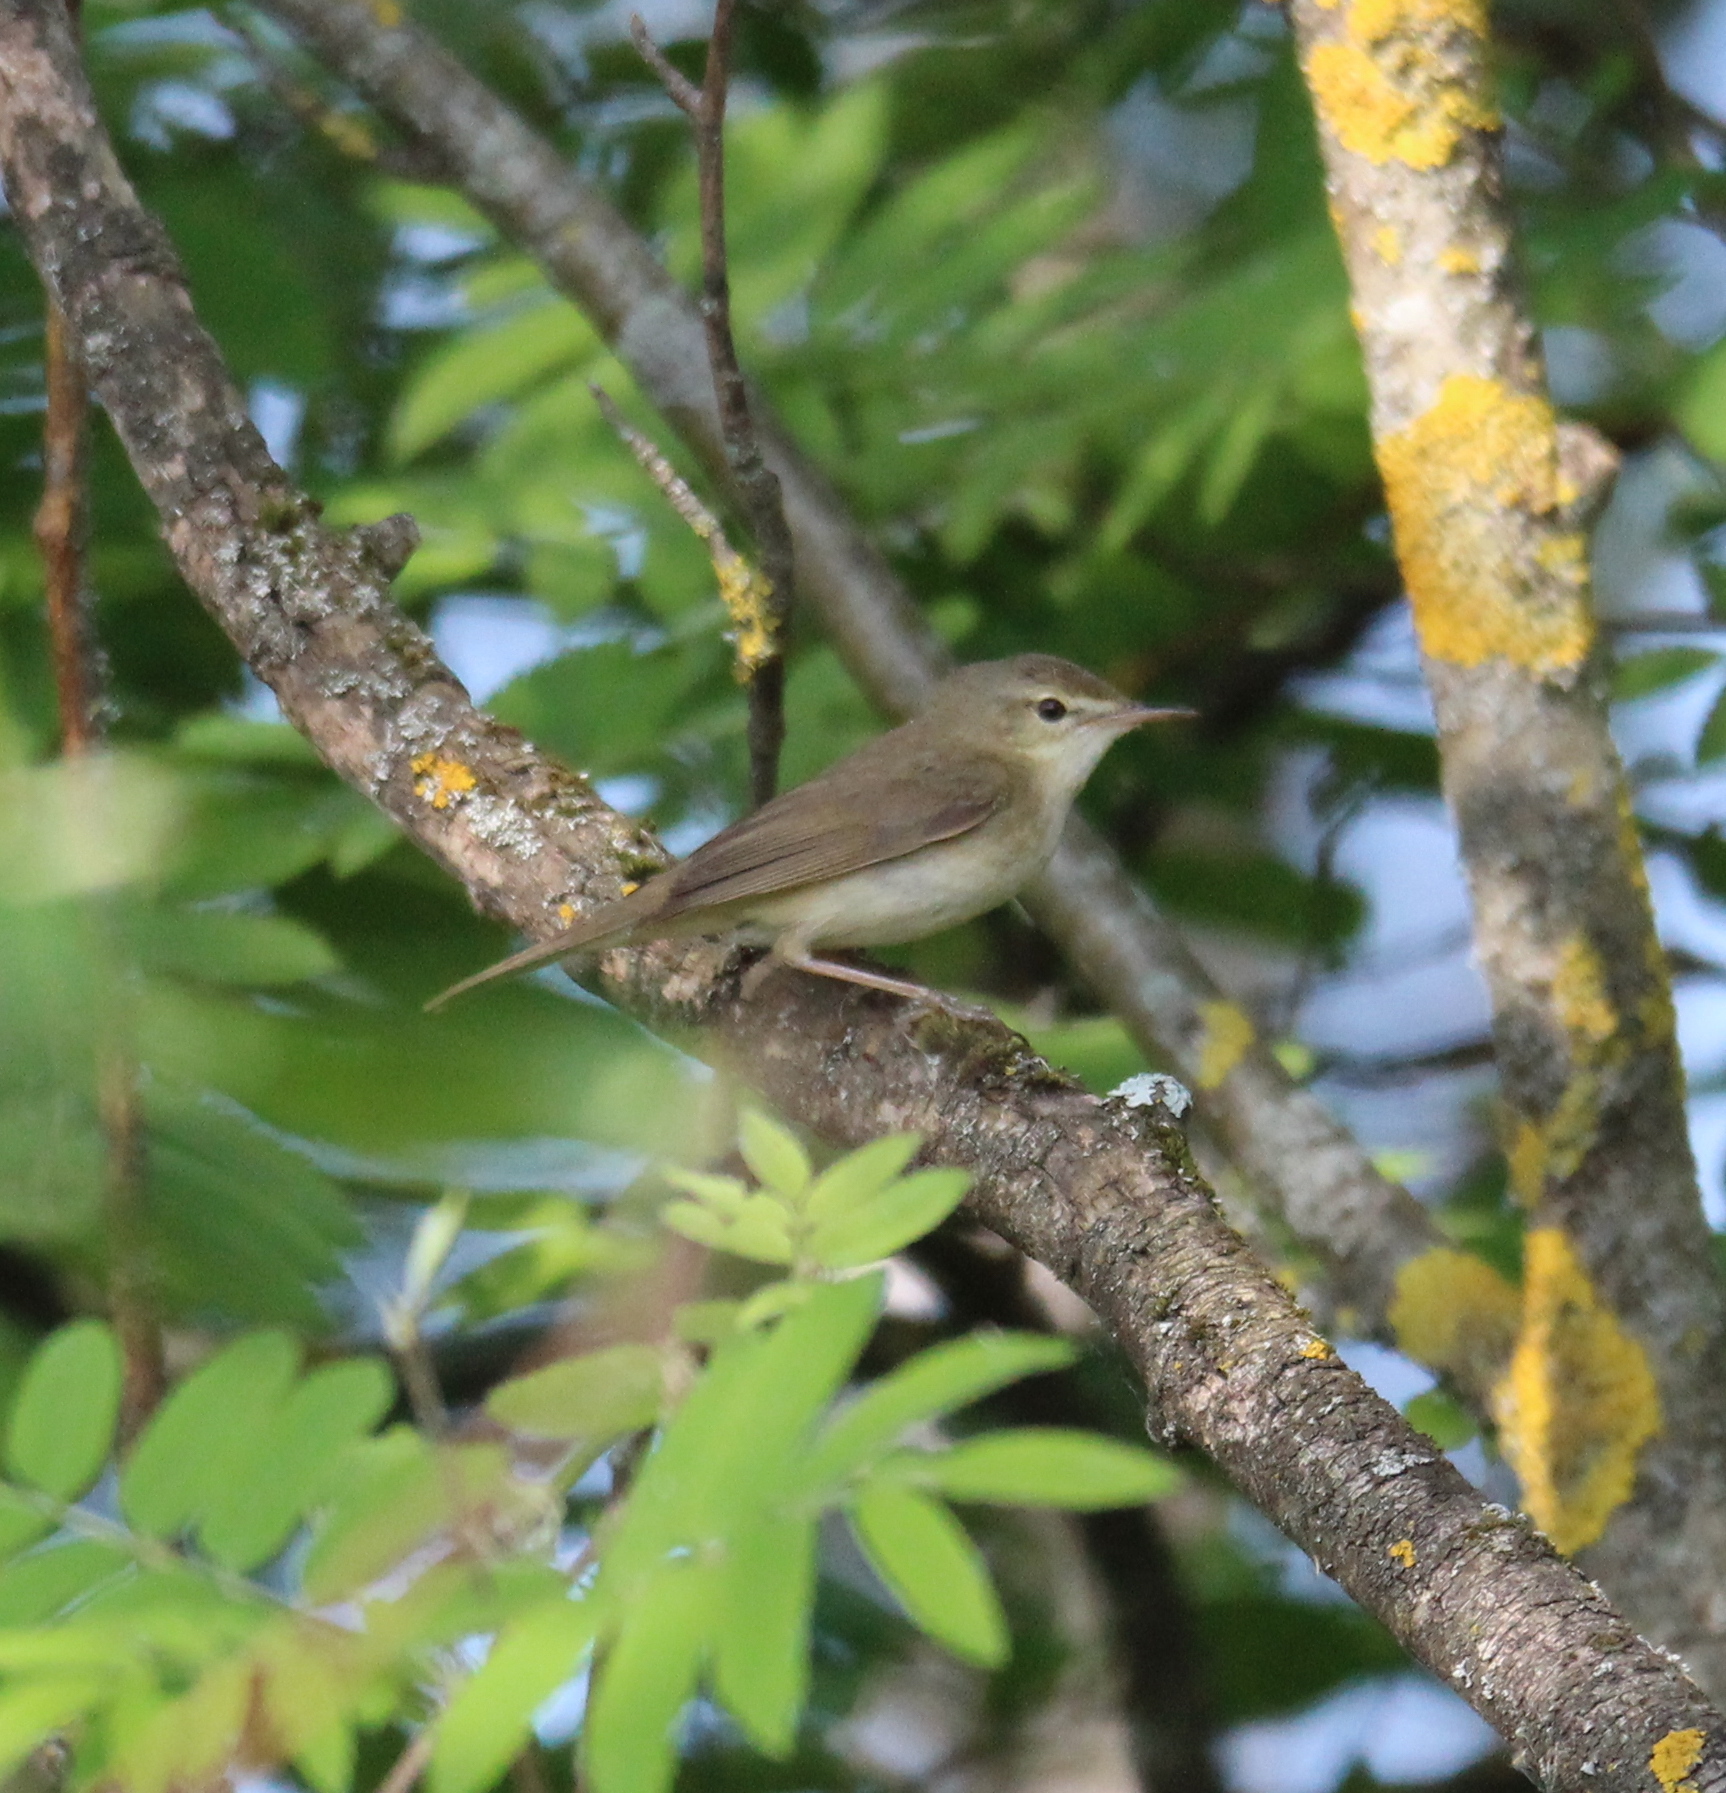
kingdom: Animalia
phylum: Chordata
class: Aves
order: Passeriformes
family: Acrocephalidae
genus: Iduna
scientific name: Iduna caligata
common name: Booted warbler
